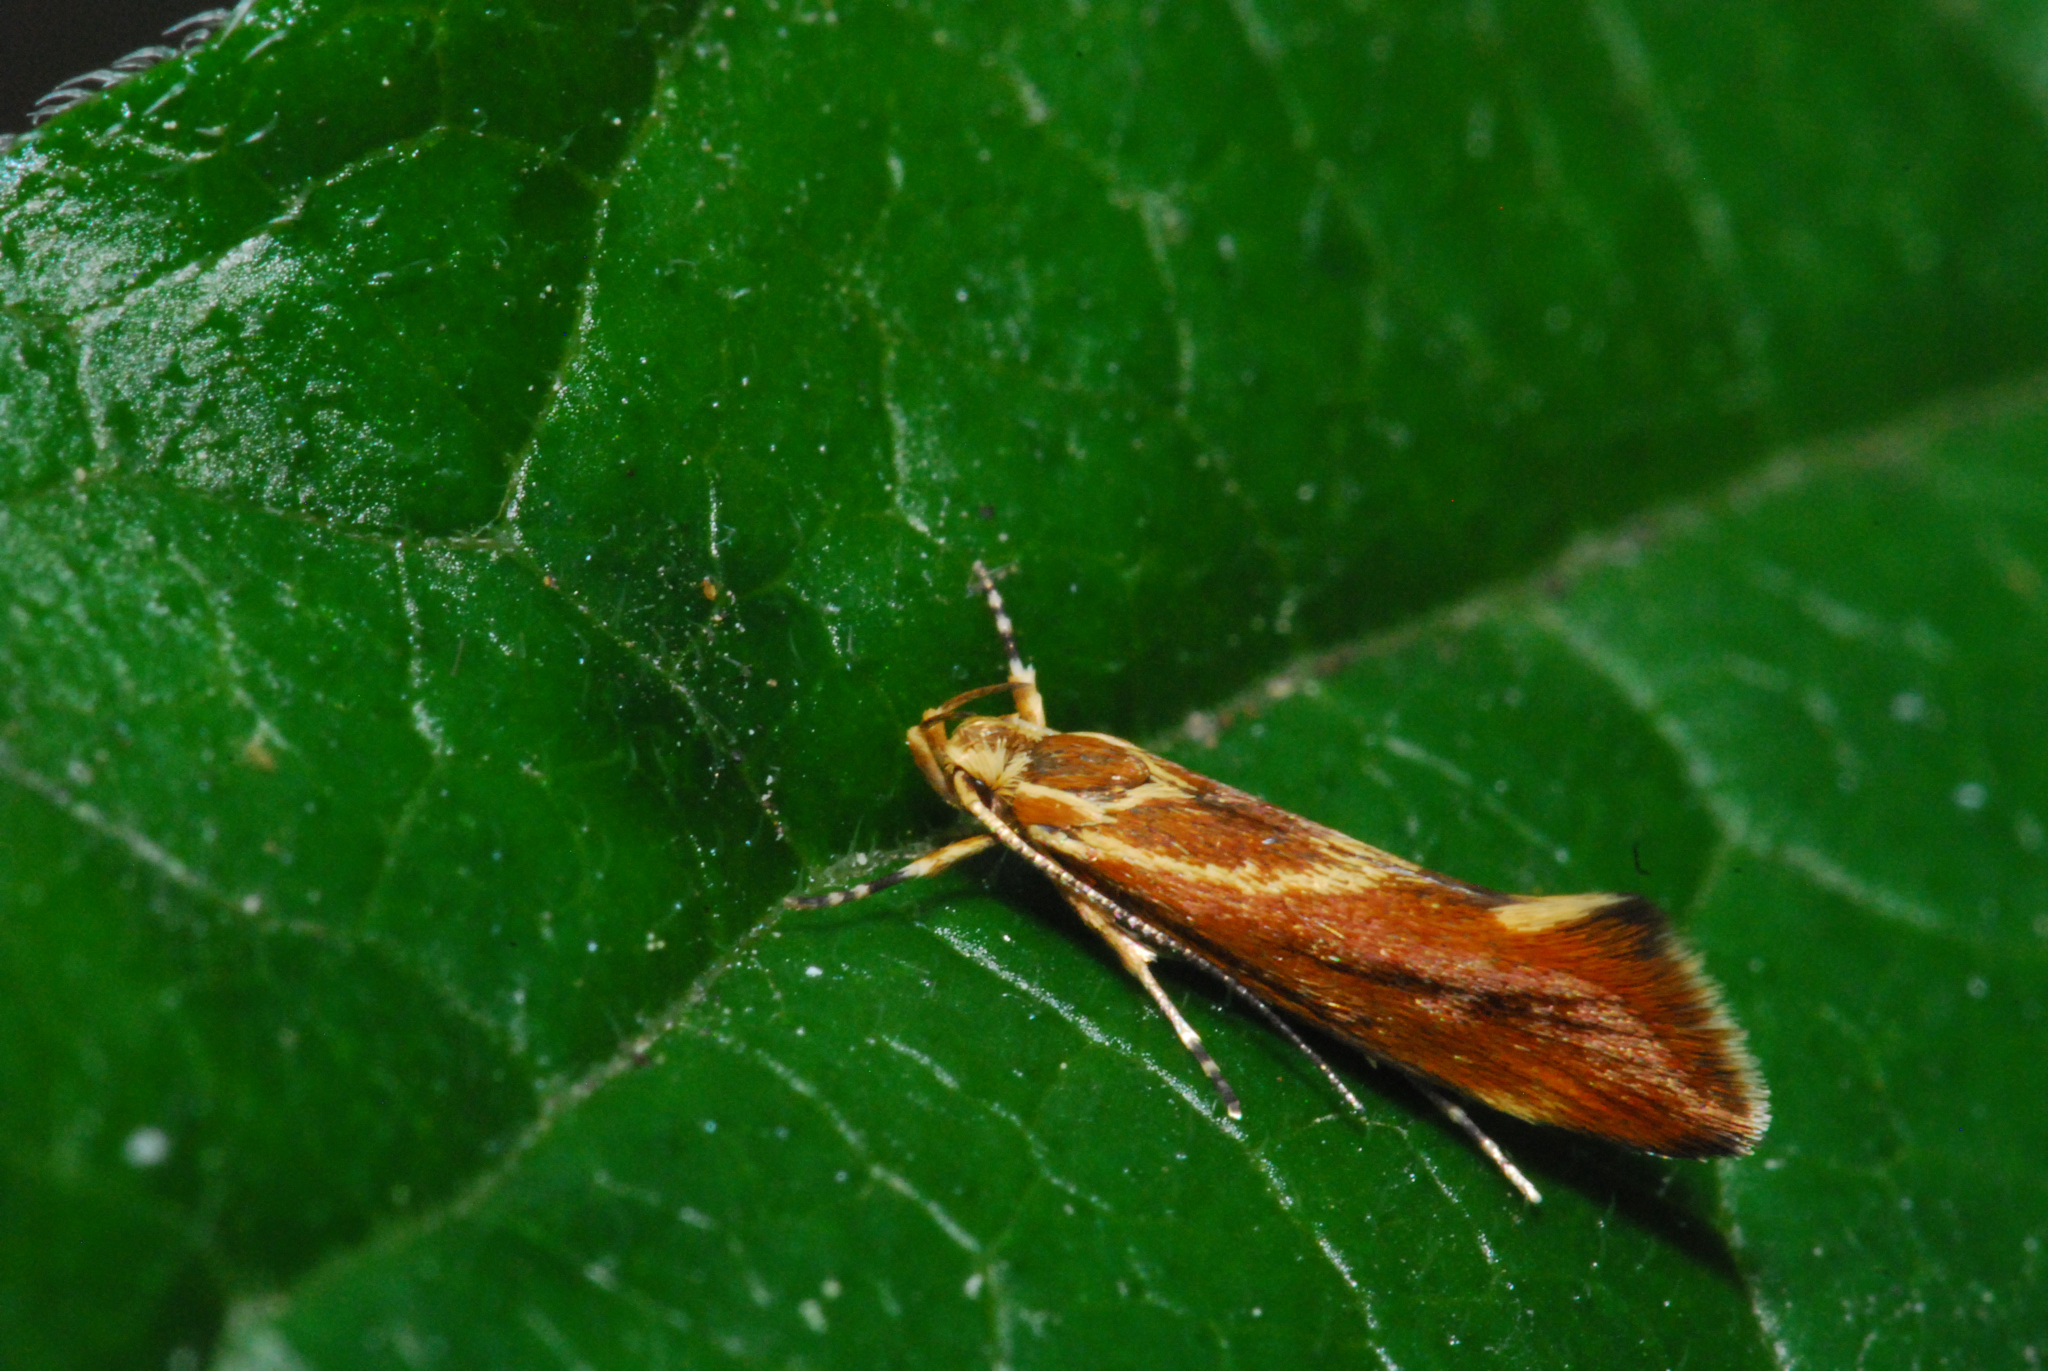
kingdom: Animalia
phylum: Arthropoda
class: Insecta
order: Lepidoptera
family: Oecophoridae
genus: Borkhausenia
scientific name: Borkhausenia italica
